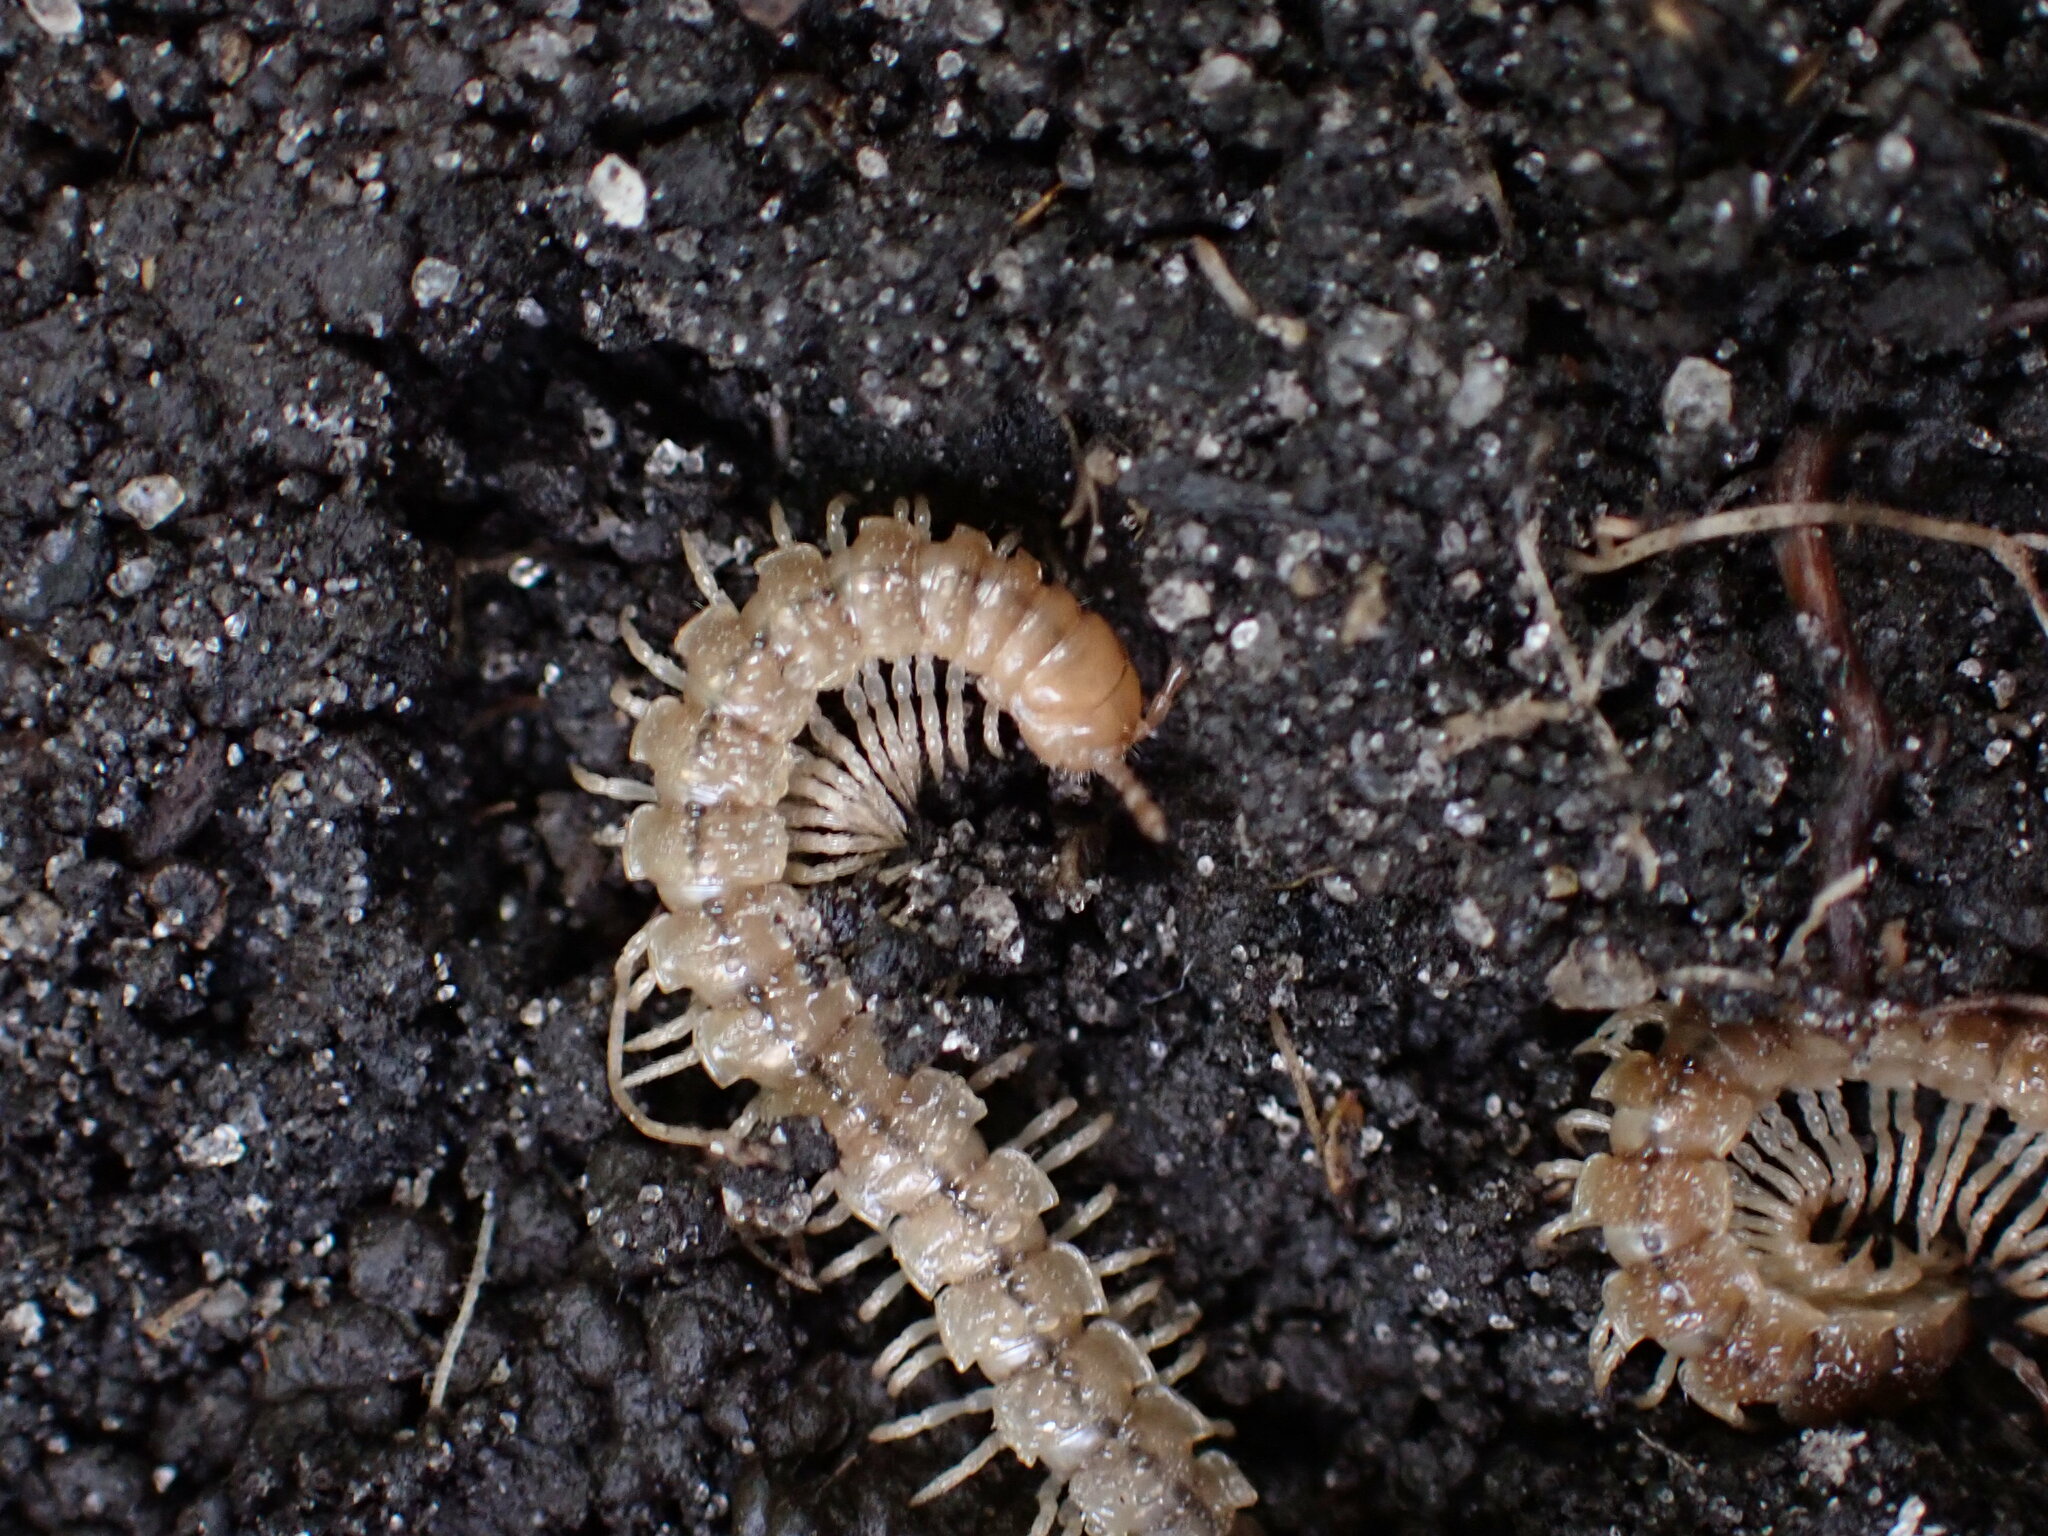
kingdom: Animalia
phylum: Arthropoda
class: Diplopoda
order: Polydesmida
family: Paradoxosomatidae
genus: Oxidus
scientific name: Oxidus gracilis
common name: Greenhouse millipede
